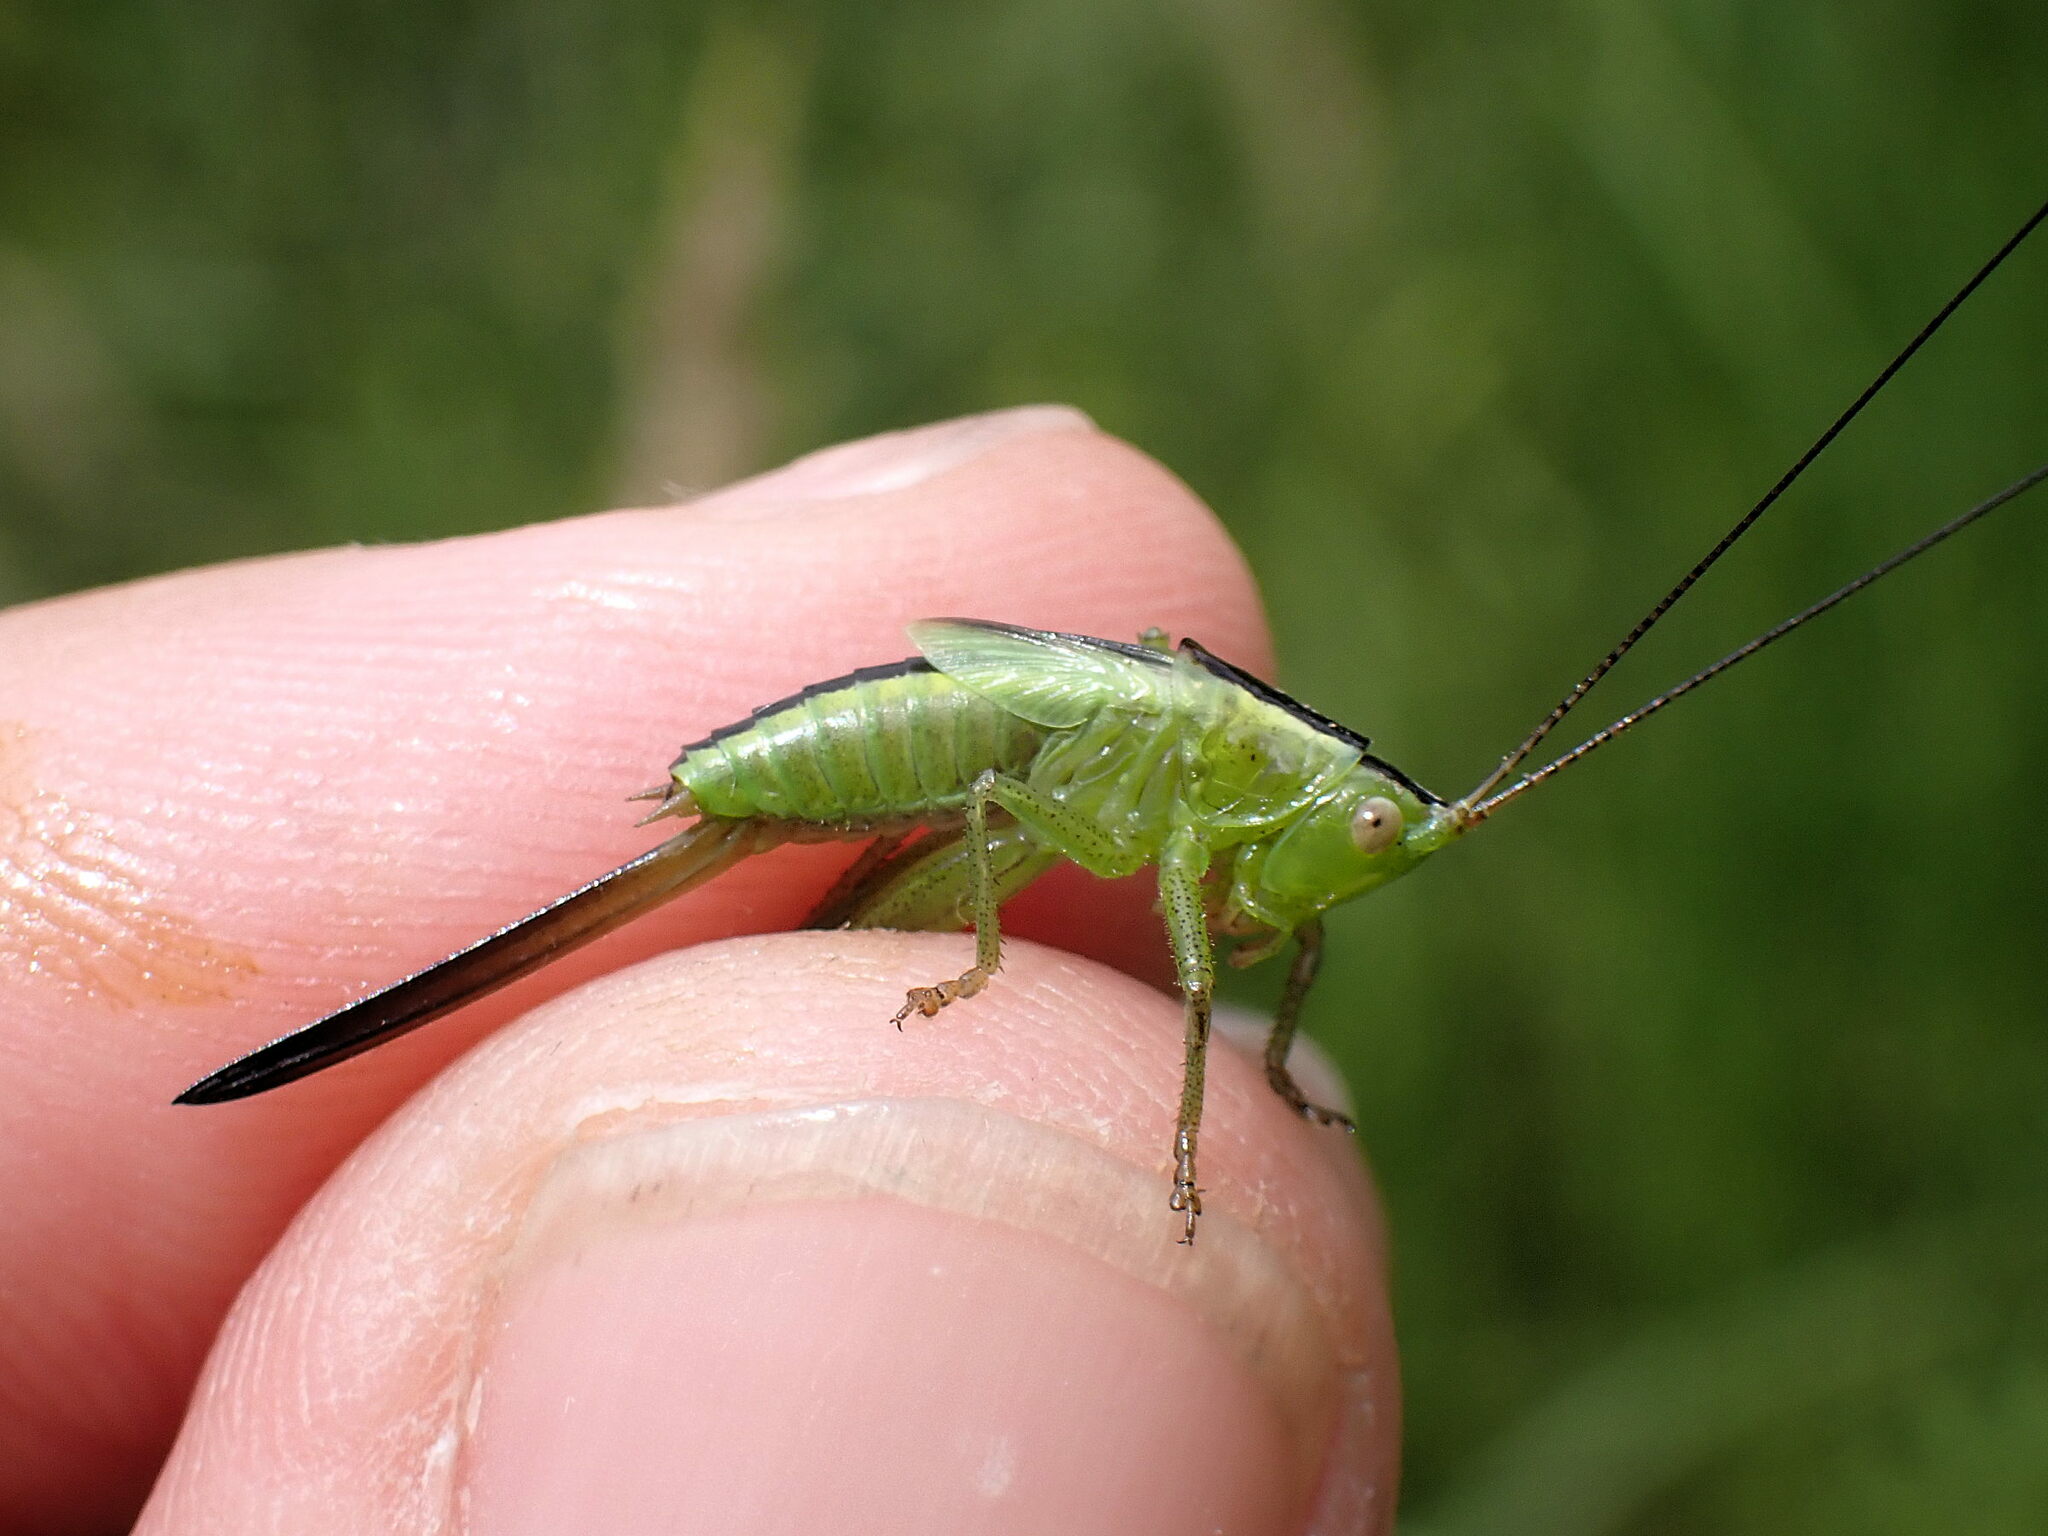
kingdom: Animalia
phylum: Arthropoda
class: Insecta
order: Orthoptera
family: Tettigoniidae
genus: Conocephalus
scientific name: Conocephalus fuscus
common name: Long-winged conehead
